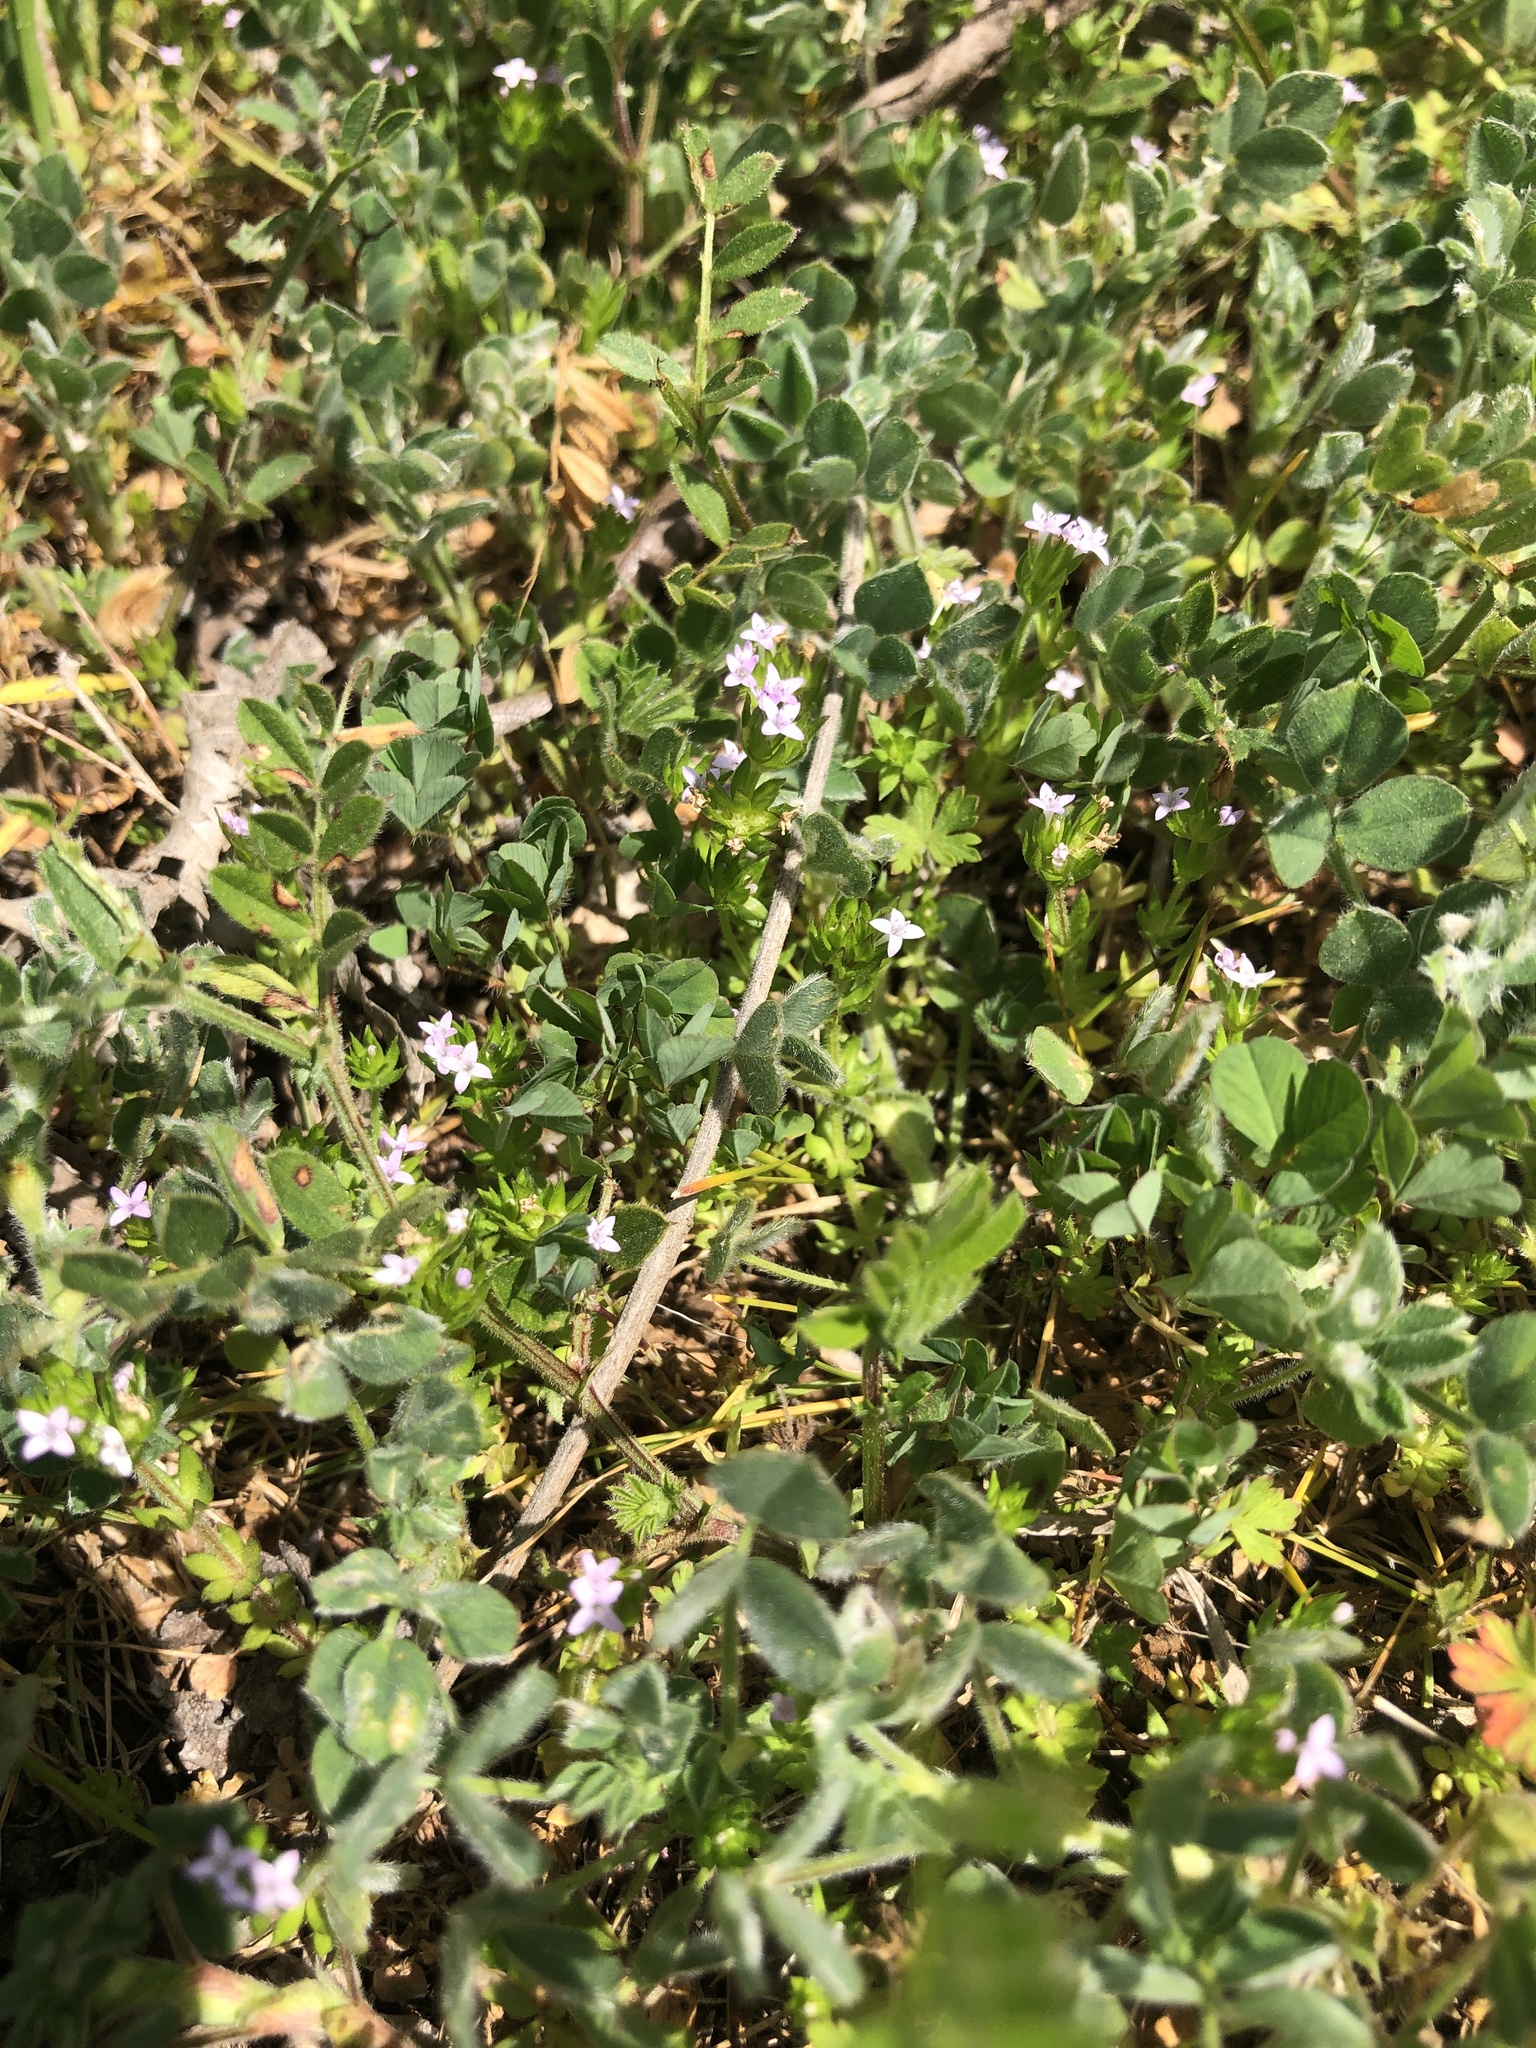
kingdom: Plantae
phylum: Tracheophyta
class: Magnoliopsida
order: Gentianales
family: Rubiaceae
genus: Sherardia
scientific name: Sherardia arvensis
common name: Field madder
